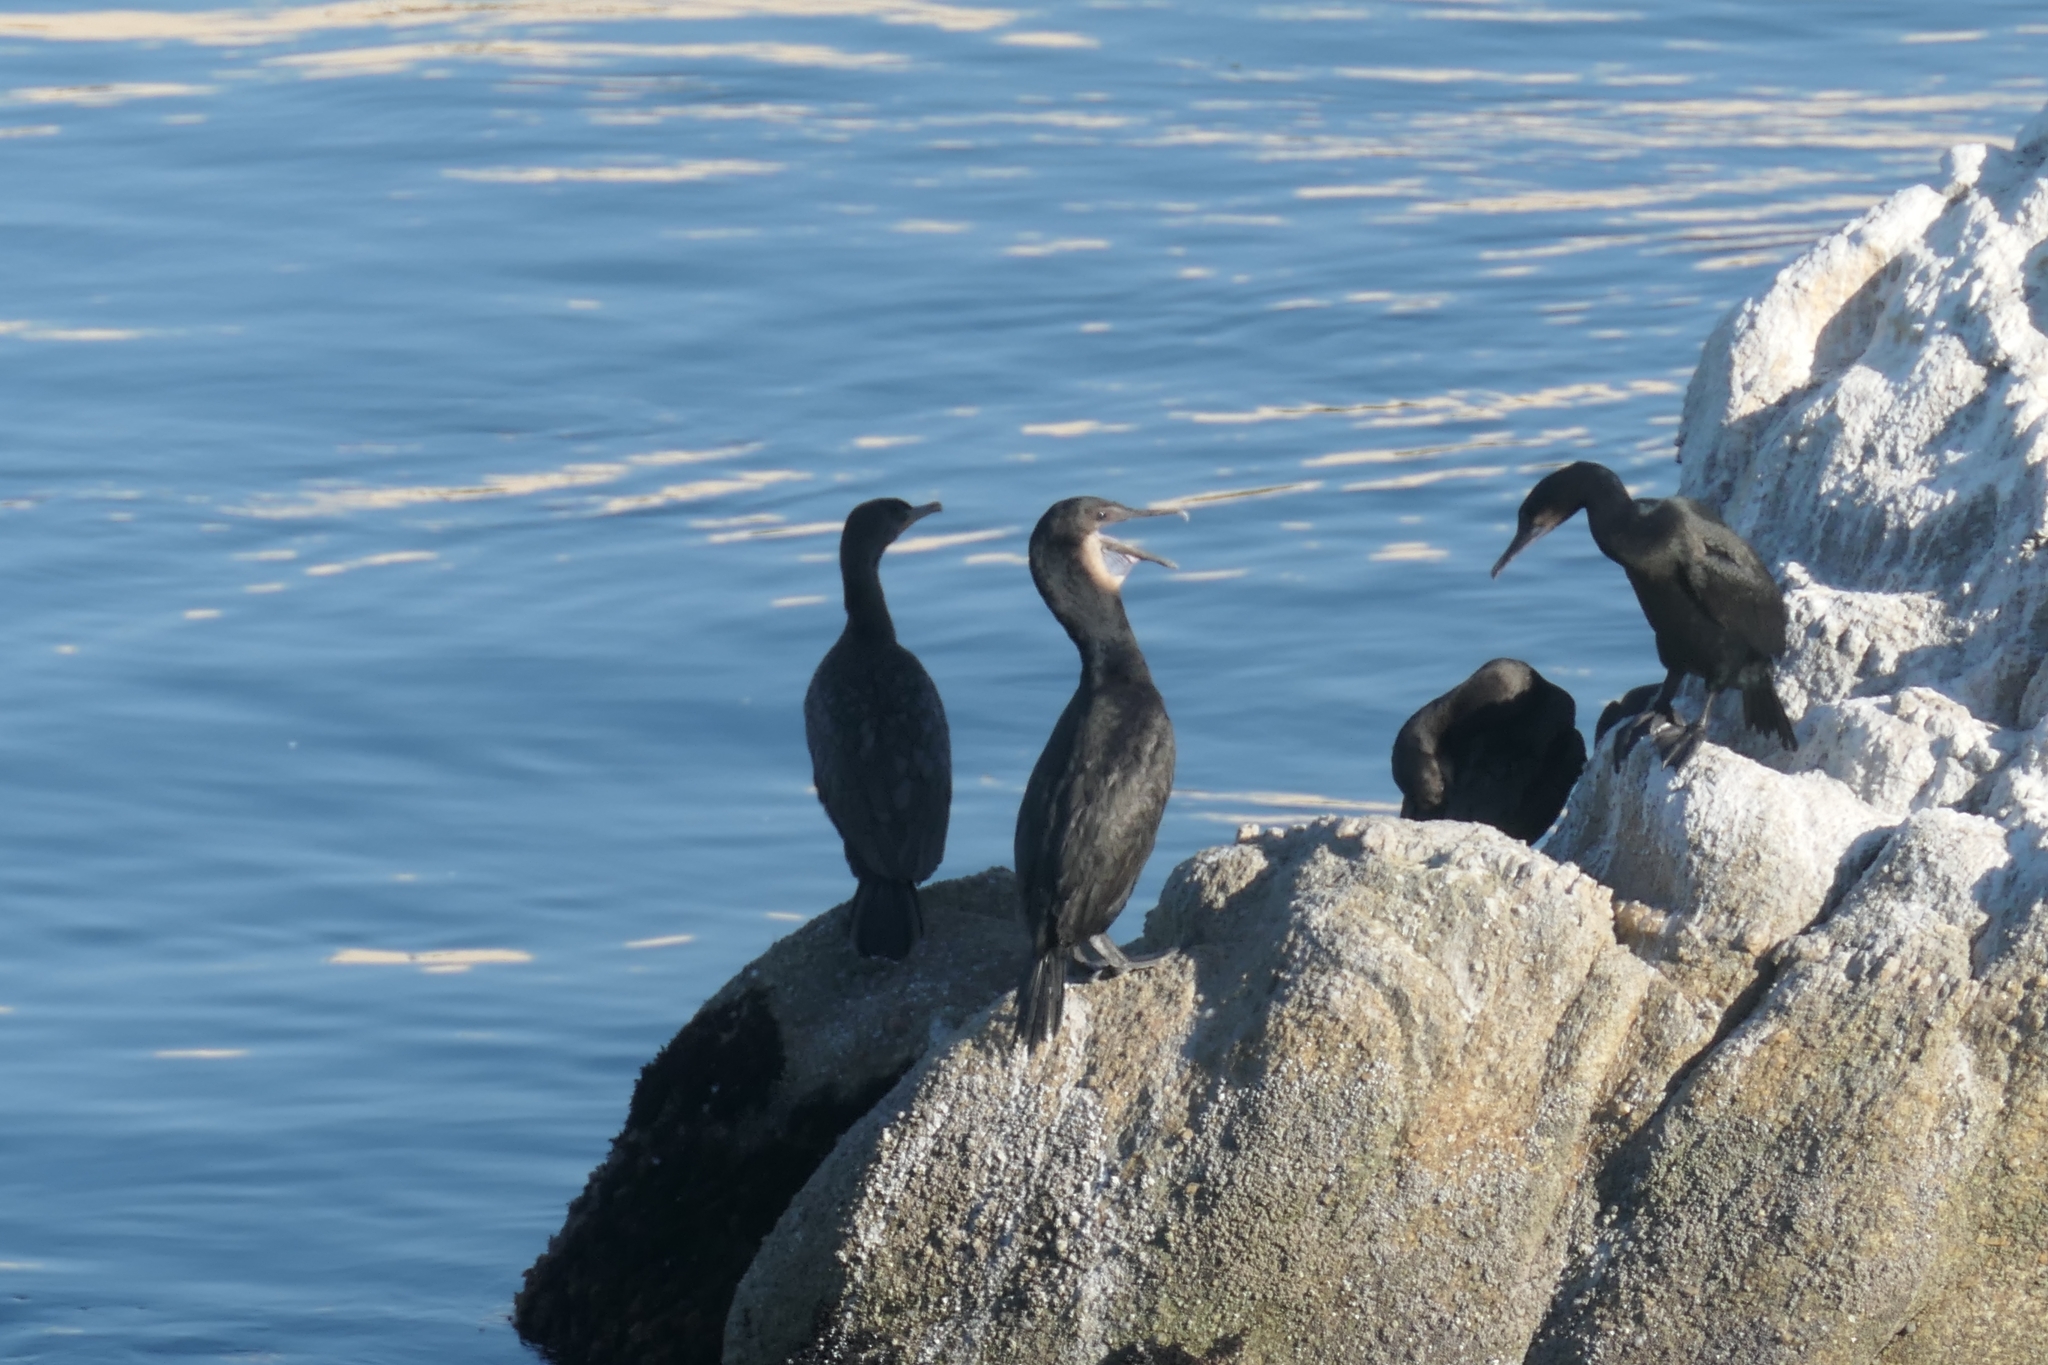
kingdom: Animalia
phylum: Chordata
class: Aves
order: Suliformes
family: Phalacrocoracidae
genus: Urile
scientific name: Urile penicillatus
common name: Brandt's cormorant
